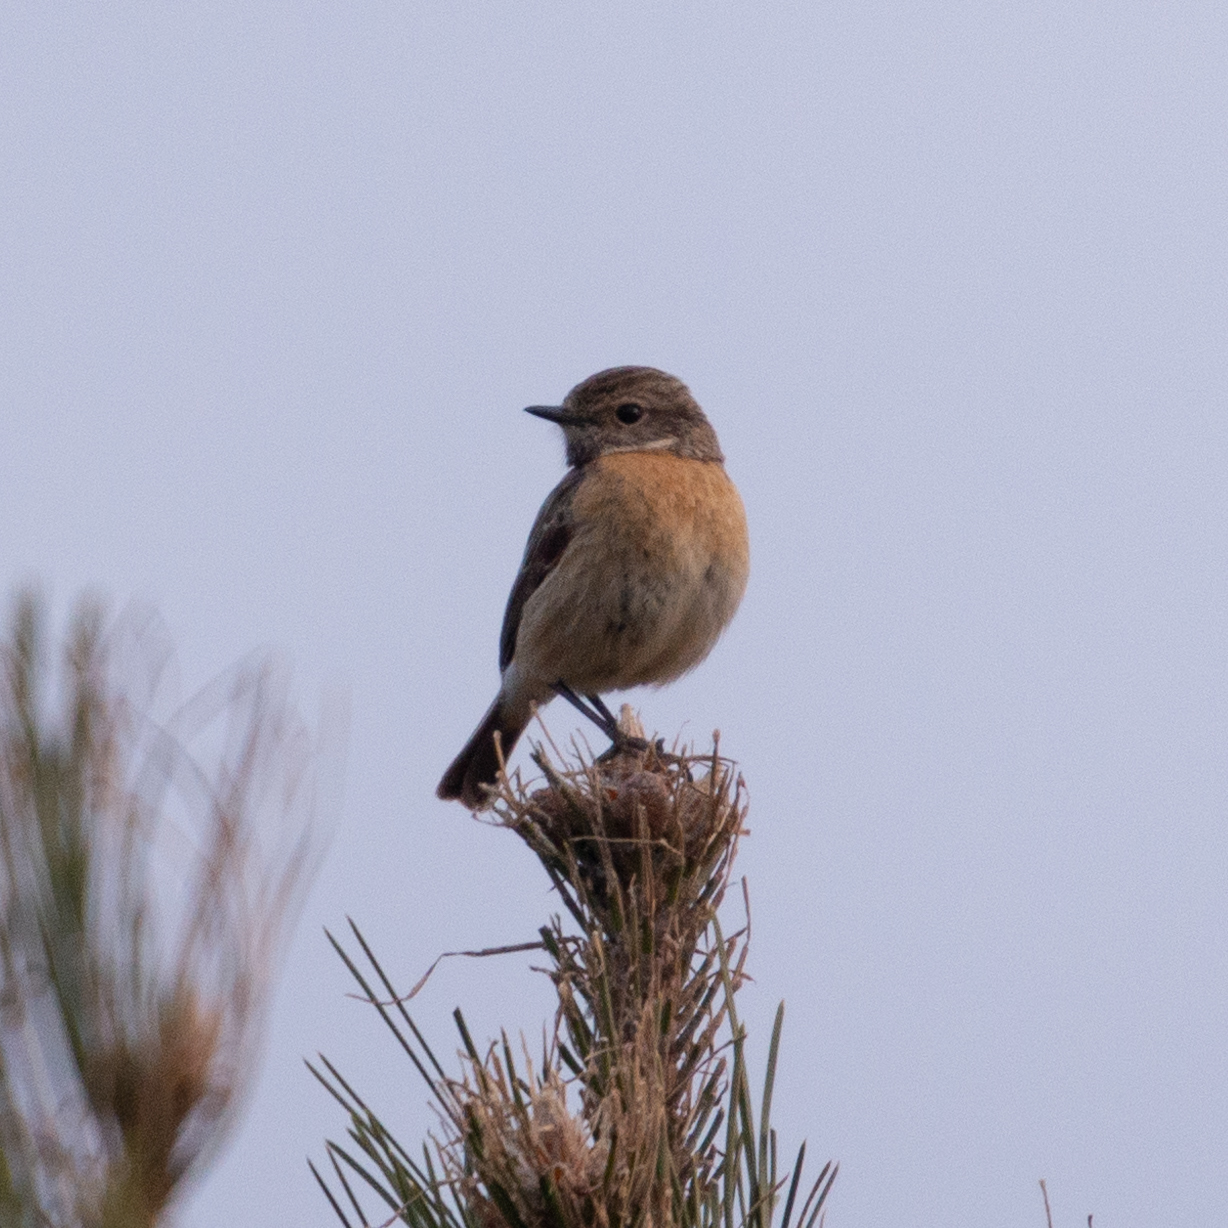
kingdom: Animalia
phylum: Chordata
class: Aves
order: Passeriformes
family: Muscicapidae
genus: Saxicola
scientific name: Saxicola rubicola
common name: European stonechat
